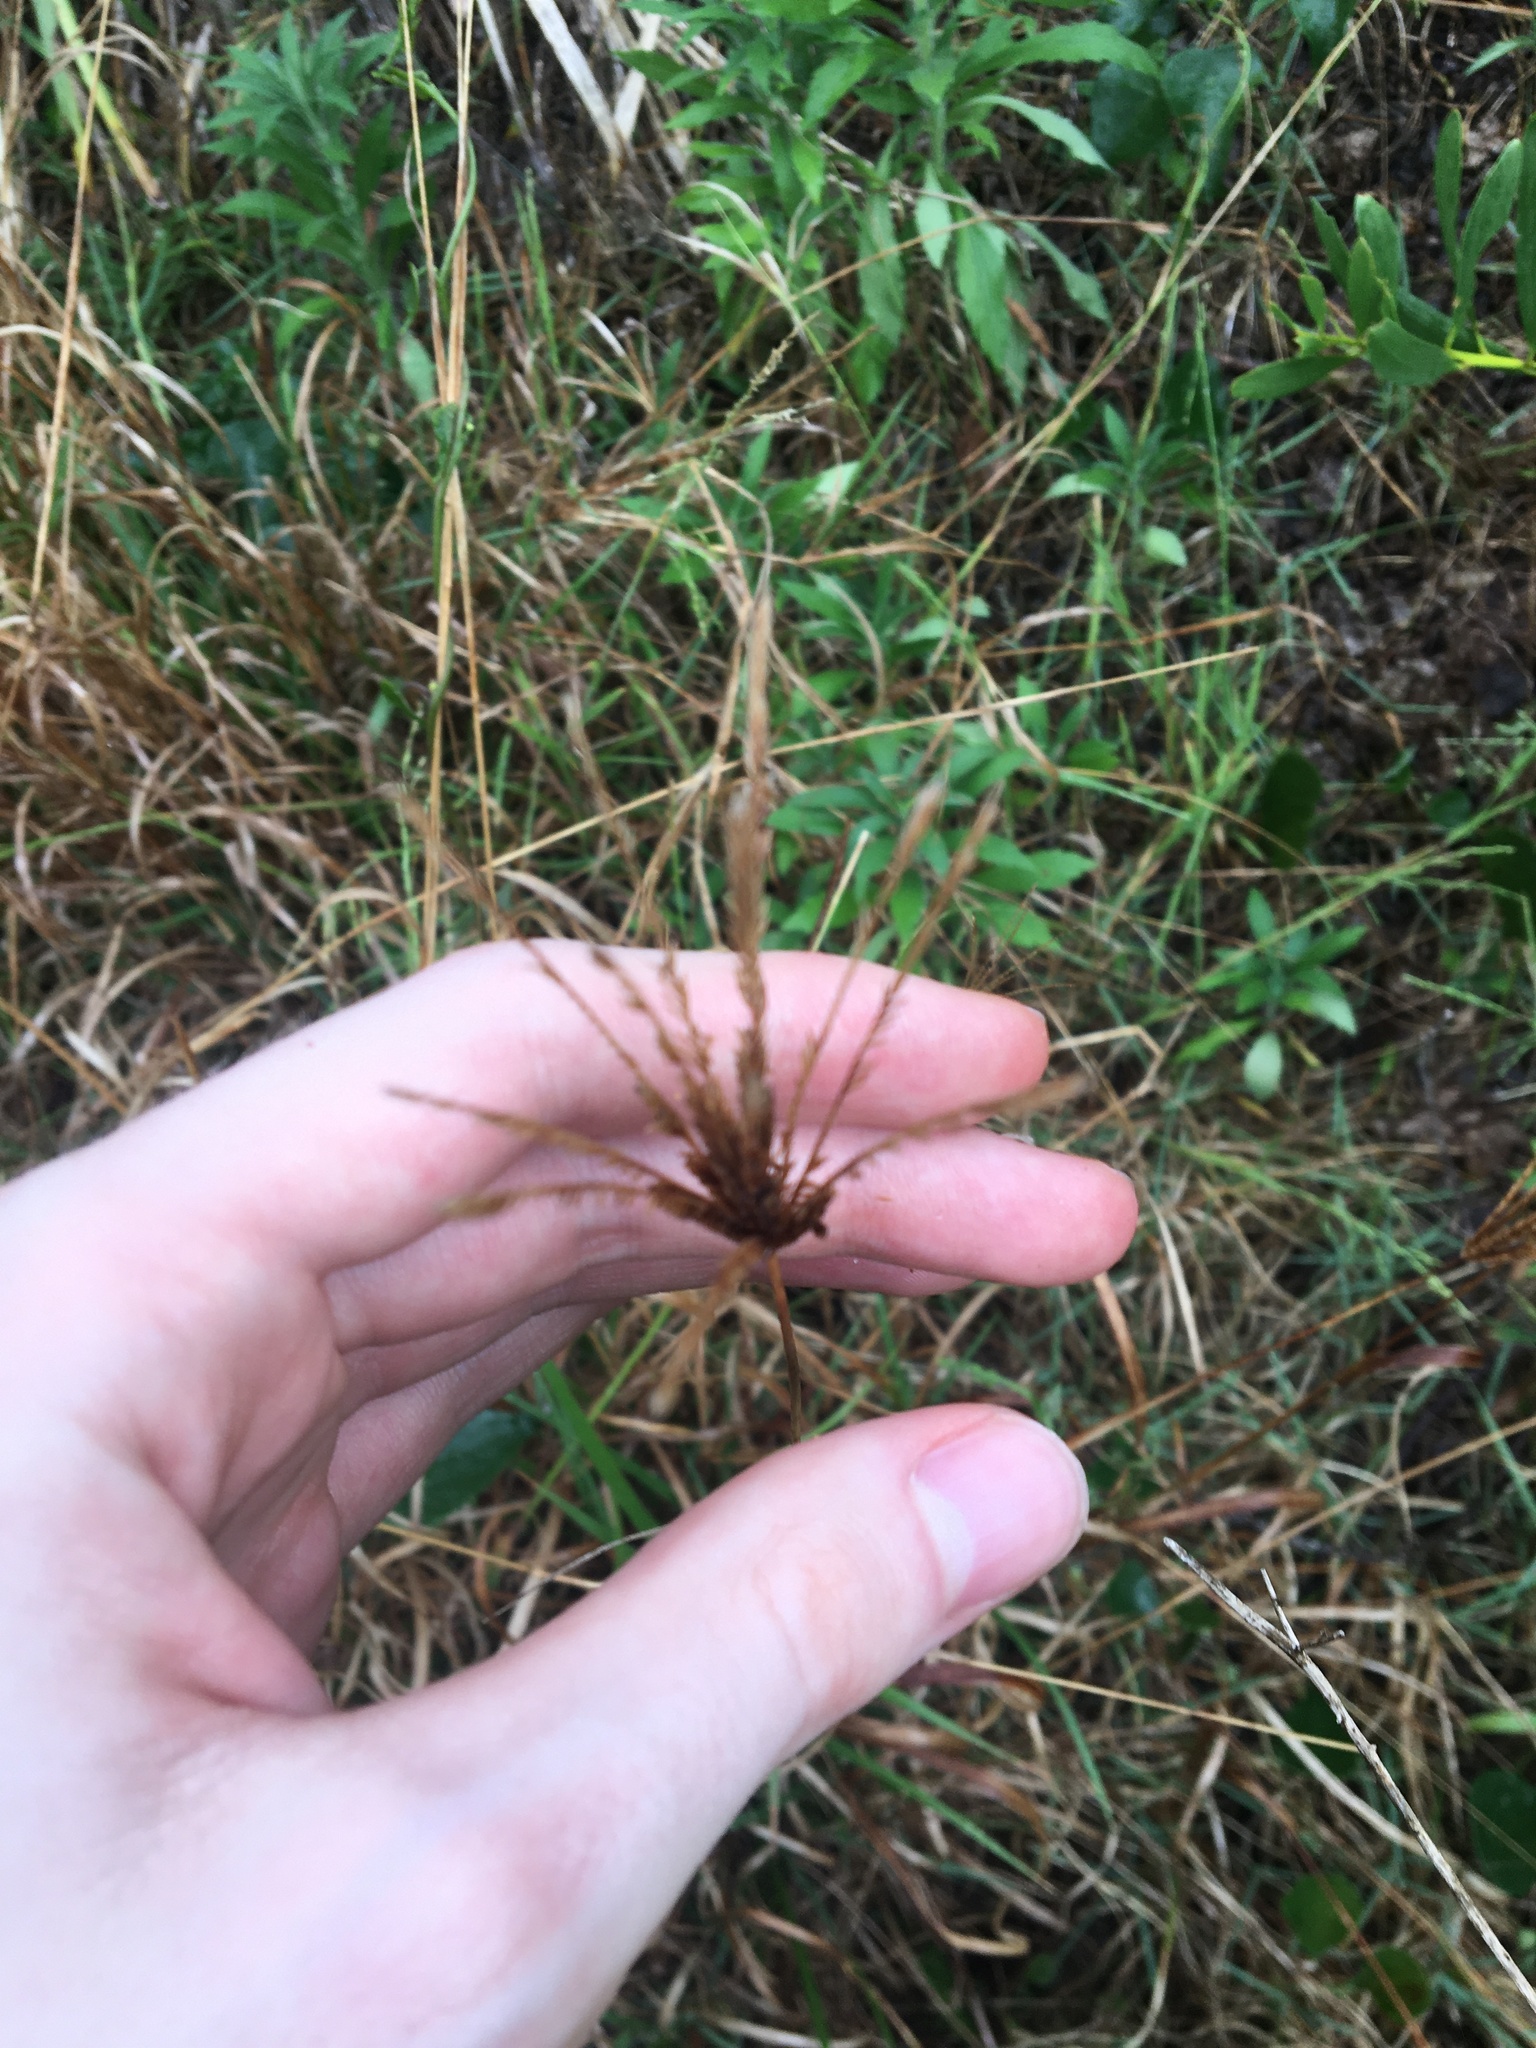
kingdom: Plantae
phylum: Tracheophyta
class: Liliopsida
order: Poales
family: Poaceae
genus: Chloris
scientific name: Chloris gayana
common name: Rhodes grass
